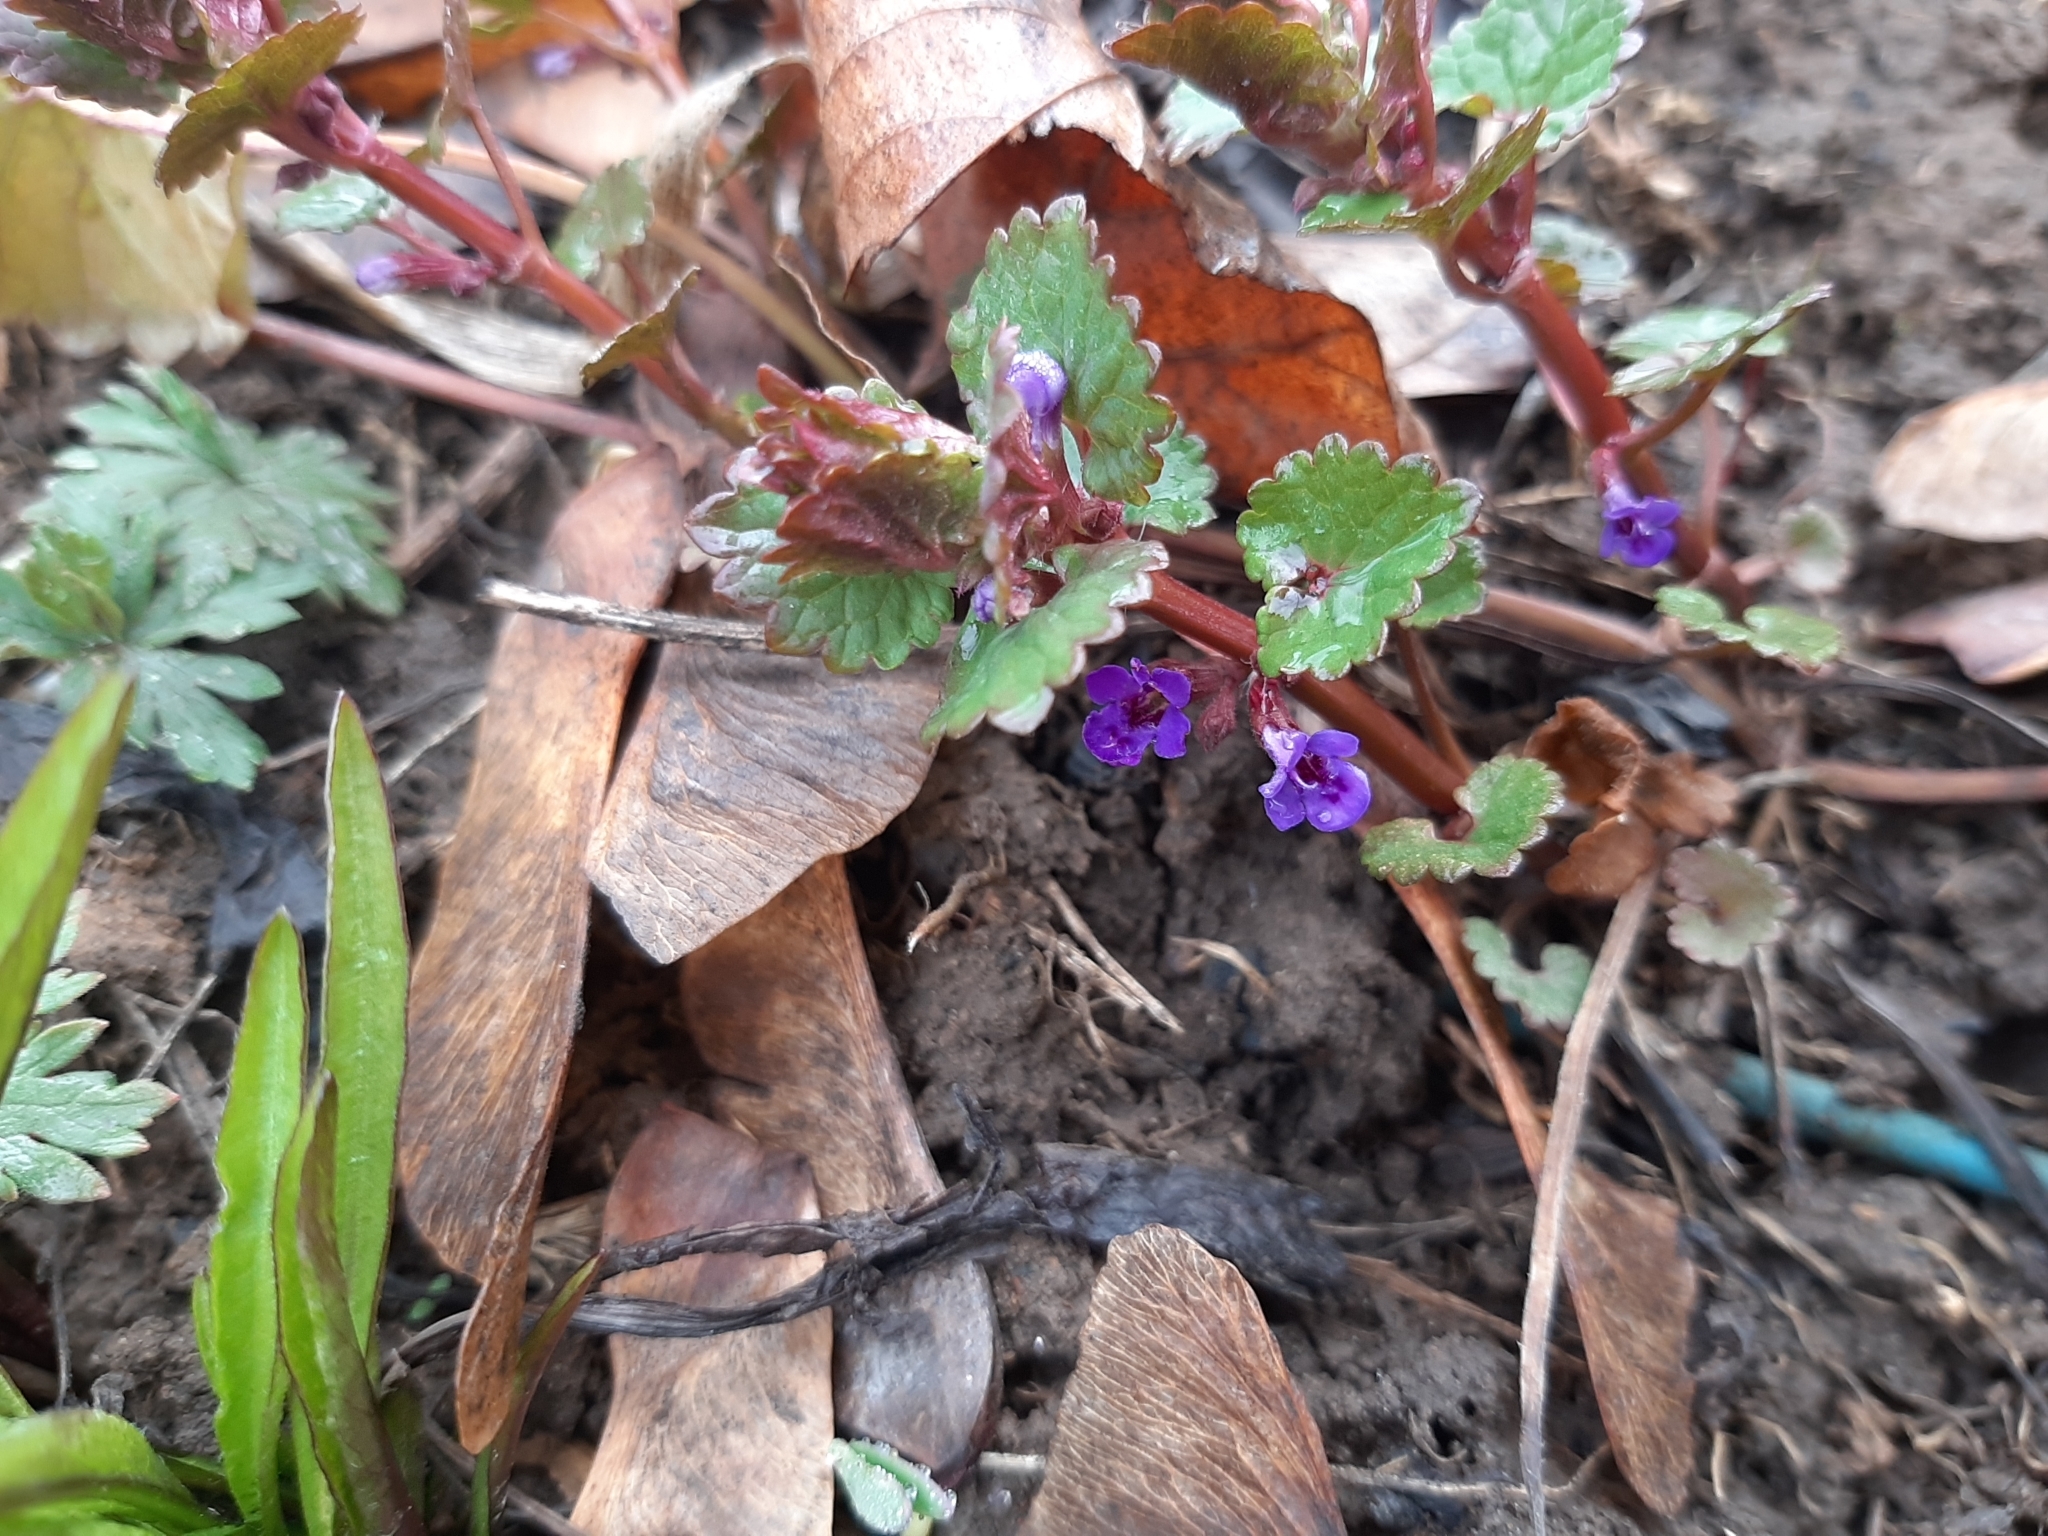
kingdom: Plantae
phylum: Tracheophyta
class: Magnoliopsida
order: Lamiales
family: Lamiaceae
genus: Glechoma
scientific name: Glechoma hederacea
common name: Ground ivy
